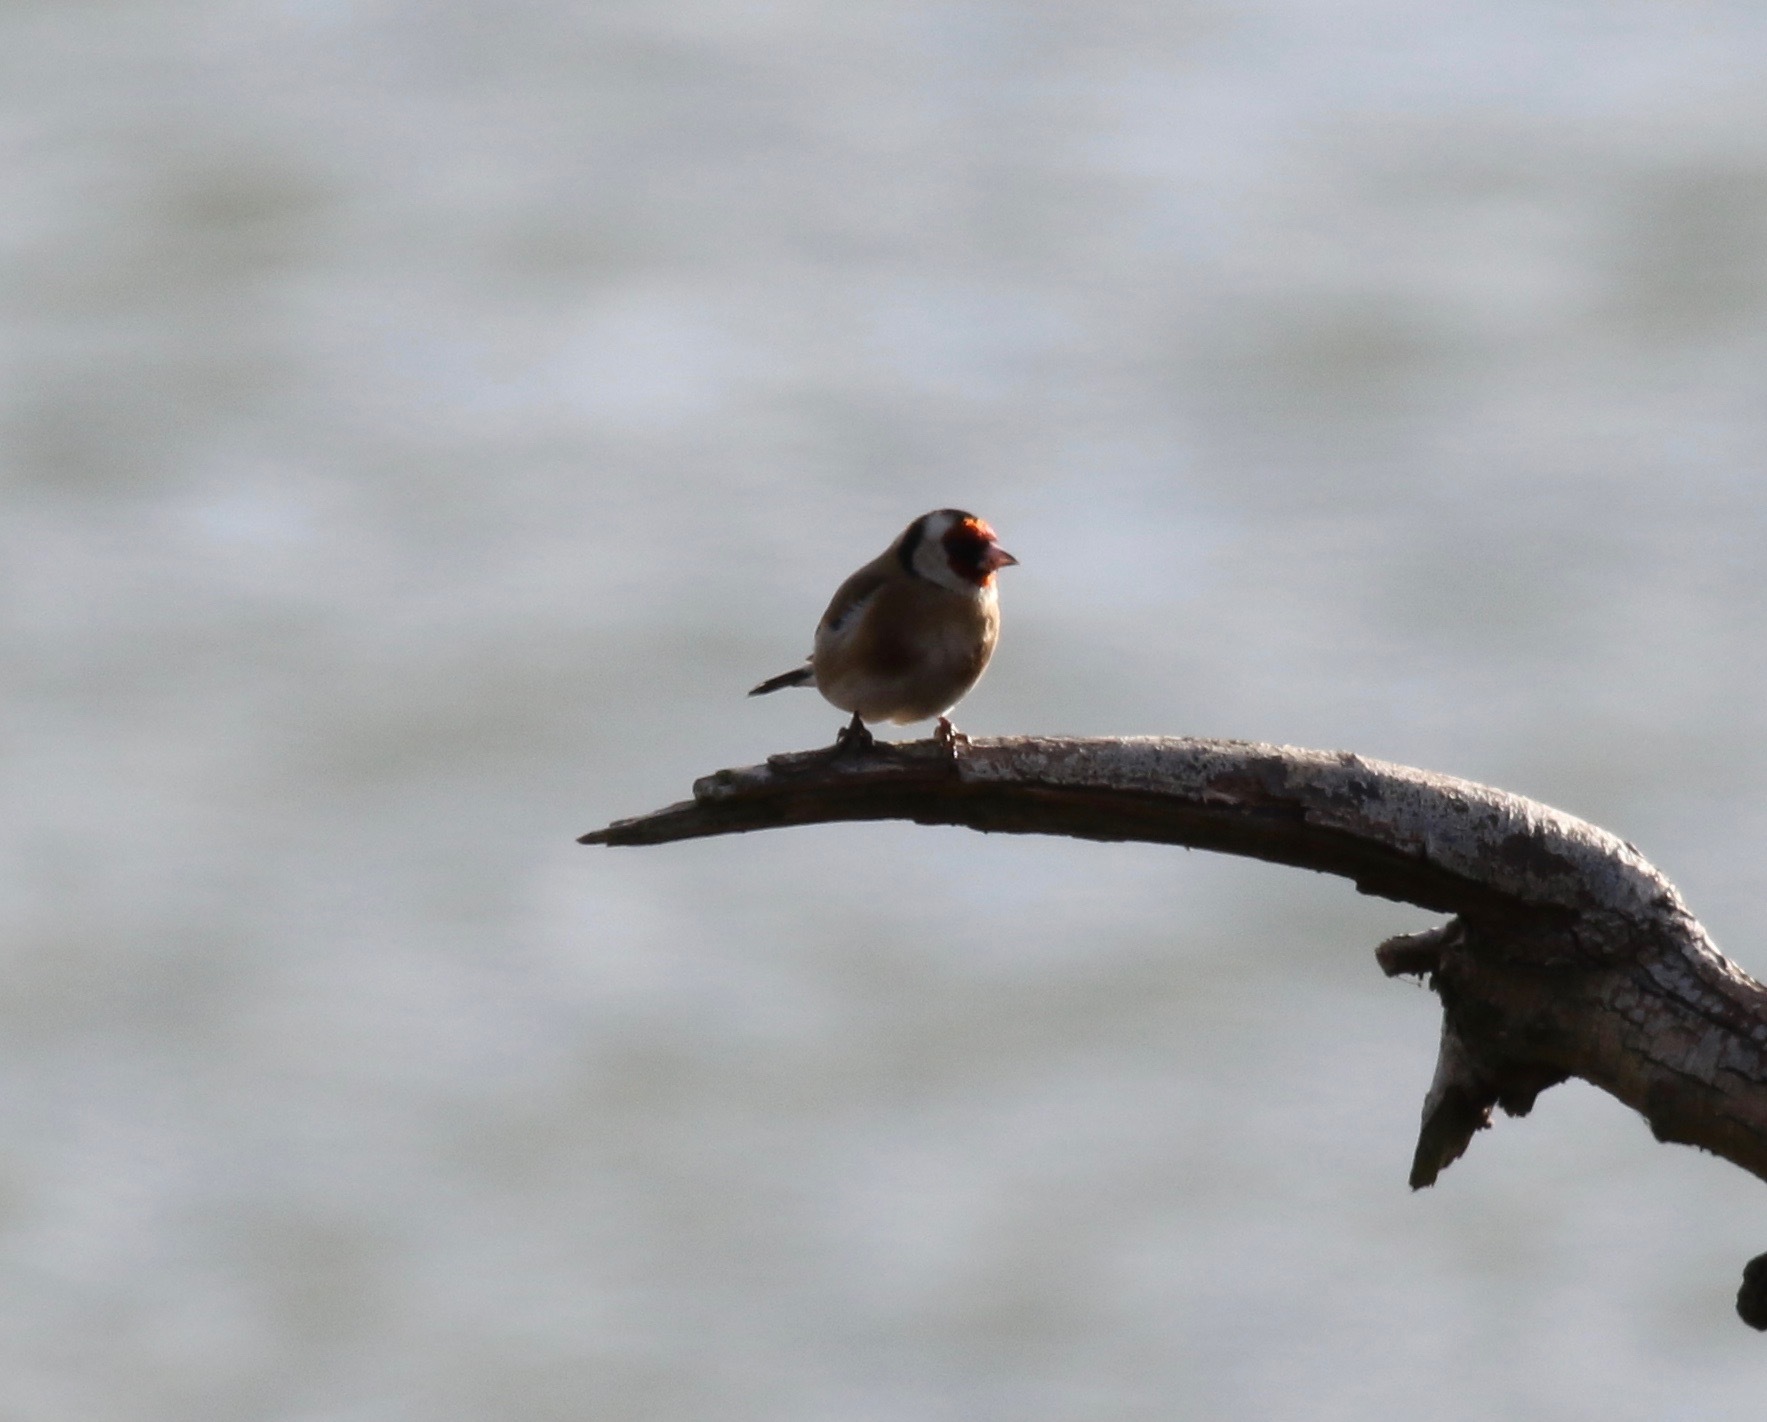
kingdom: Animalia
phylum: Chordata
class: Aves
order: Passeriformes
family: Fringillidae
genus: Carduelis
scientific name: Carduelis carduelis
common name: European goldfinch
